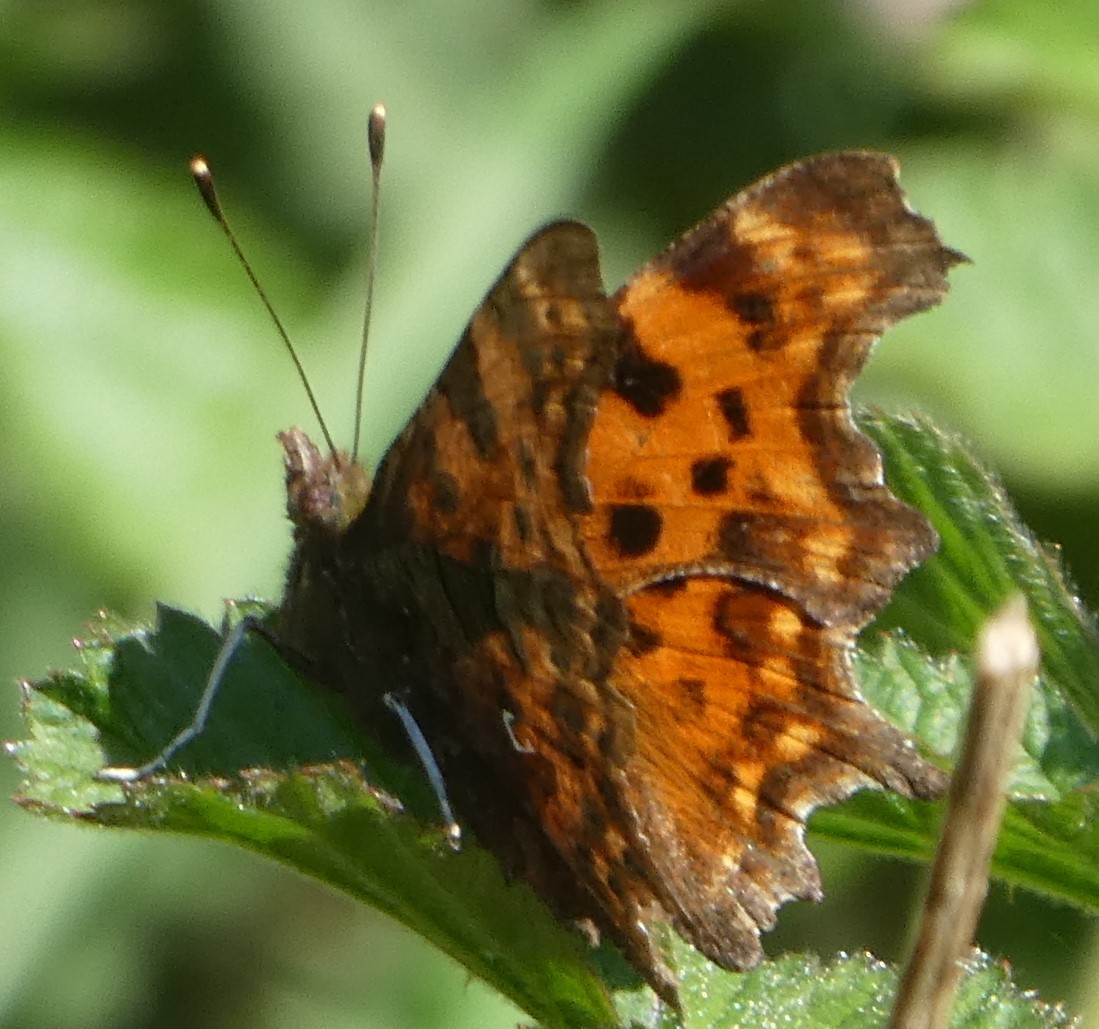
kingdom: Animalia
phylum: Arthropoda
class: Insecta
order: Lepidoptera
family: Nymphalidae
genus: Polygonia
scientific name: Polygonia c-album
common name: Comma
